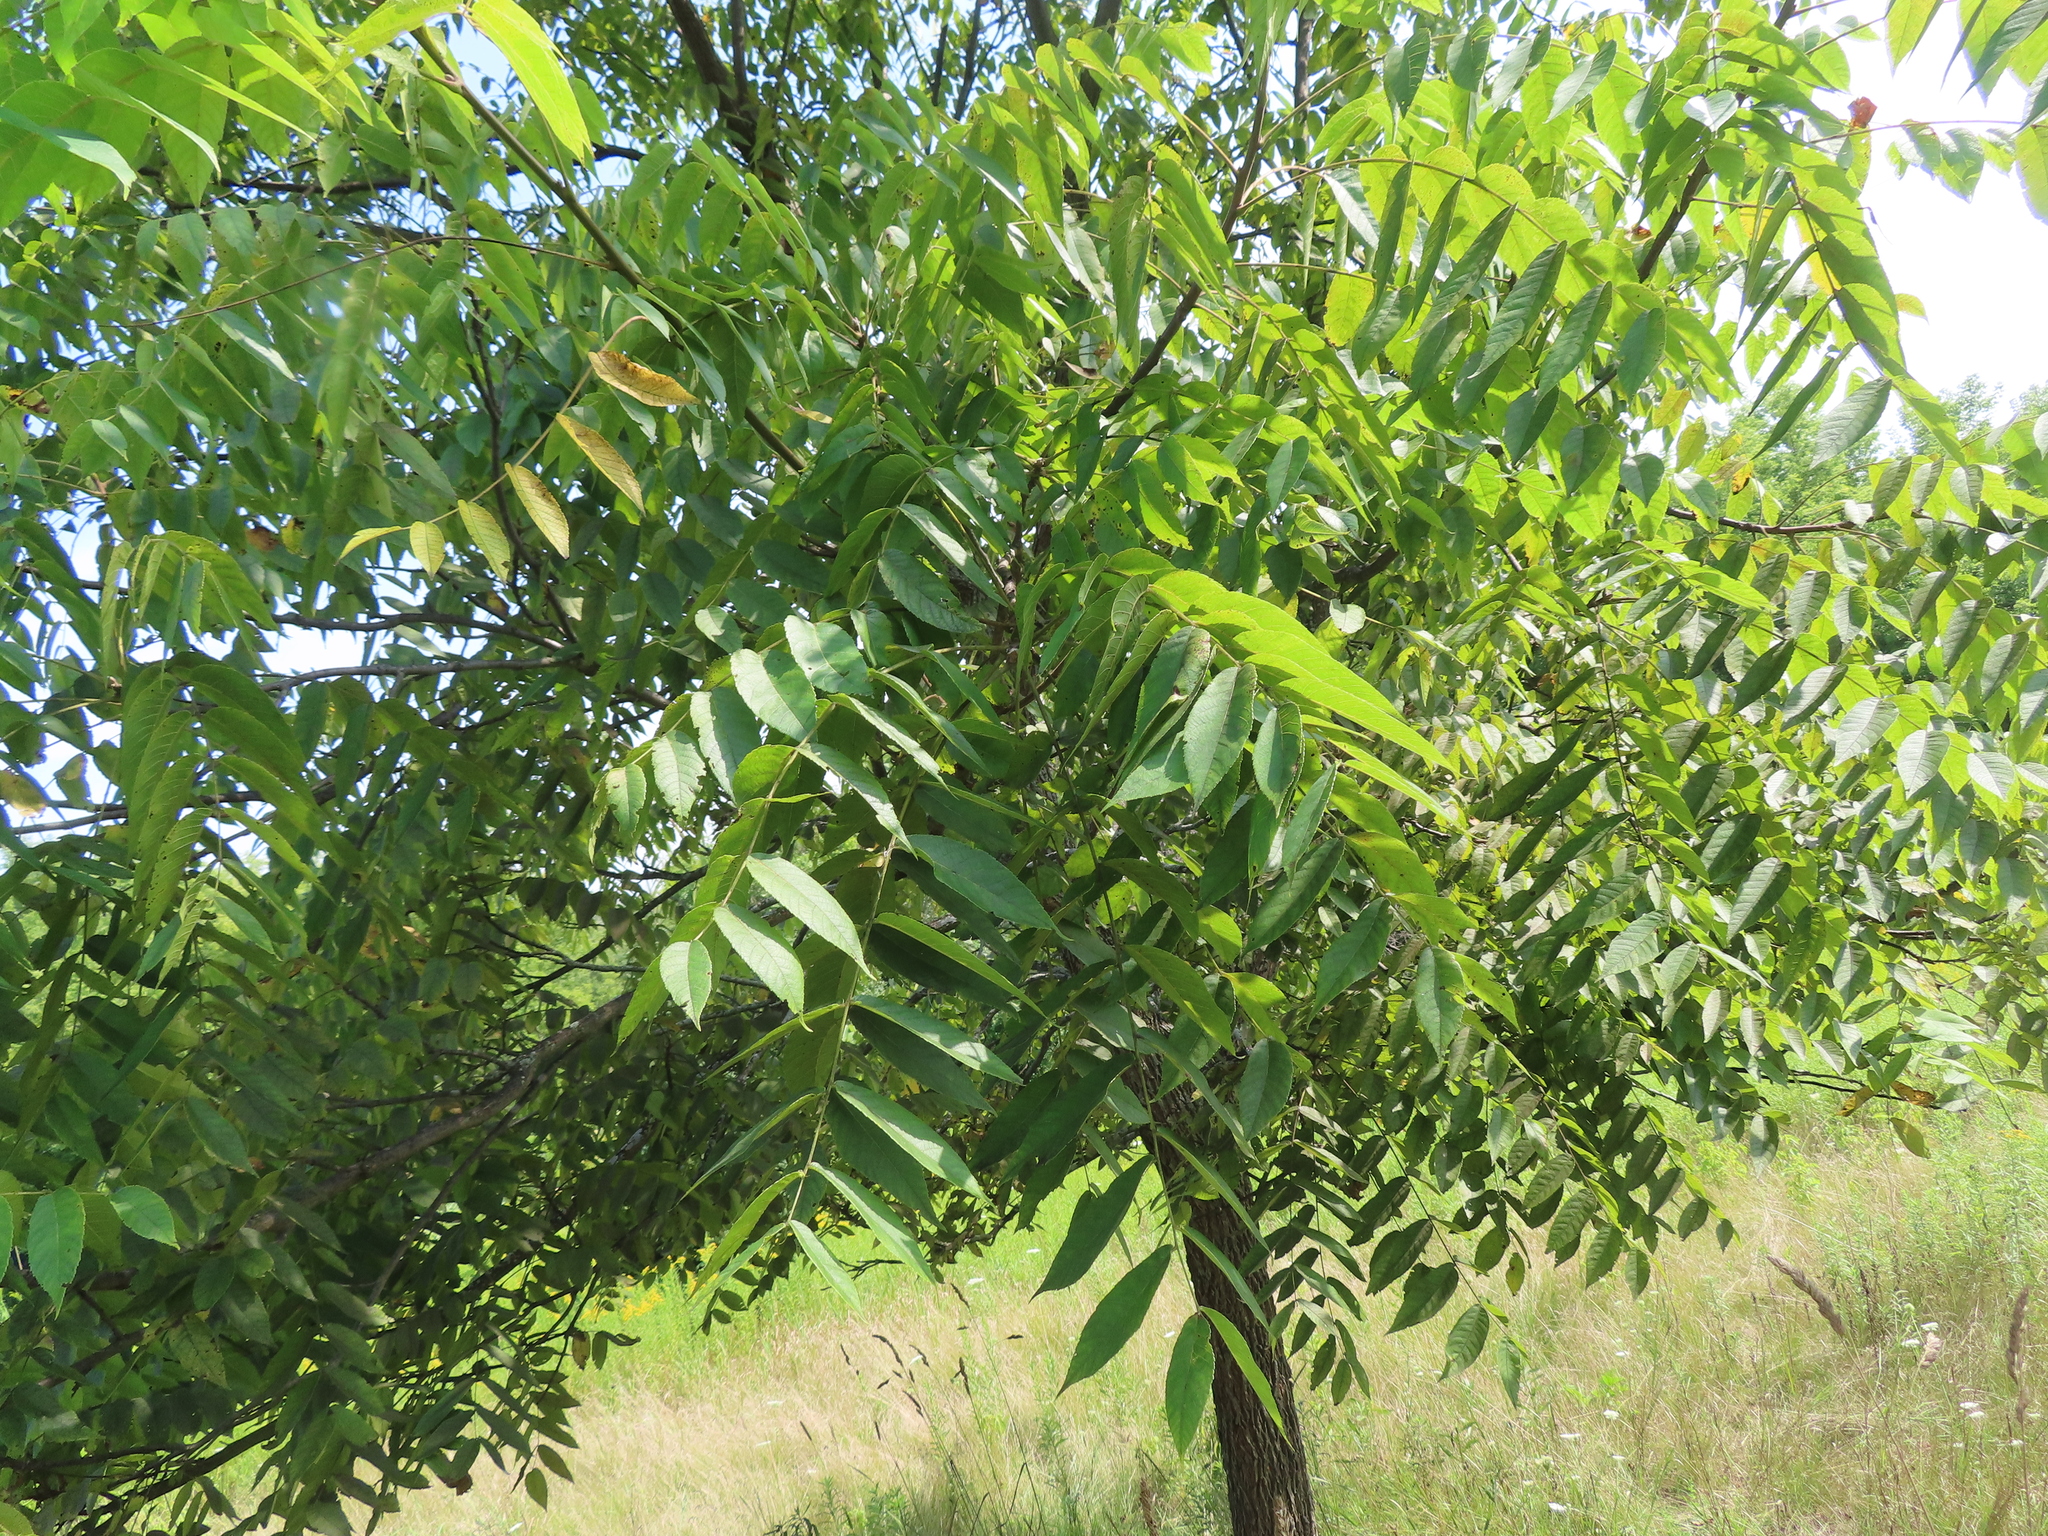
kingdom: Plantae
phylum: Tracheophyta
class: Magnoliopsida
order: Fagales
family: Juglandaceae
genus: Juglans
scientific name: Juglans nigra
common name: Black walnut
